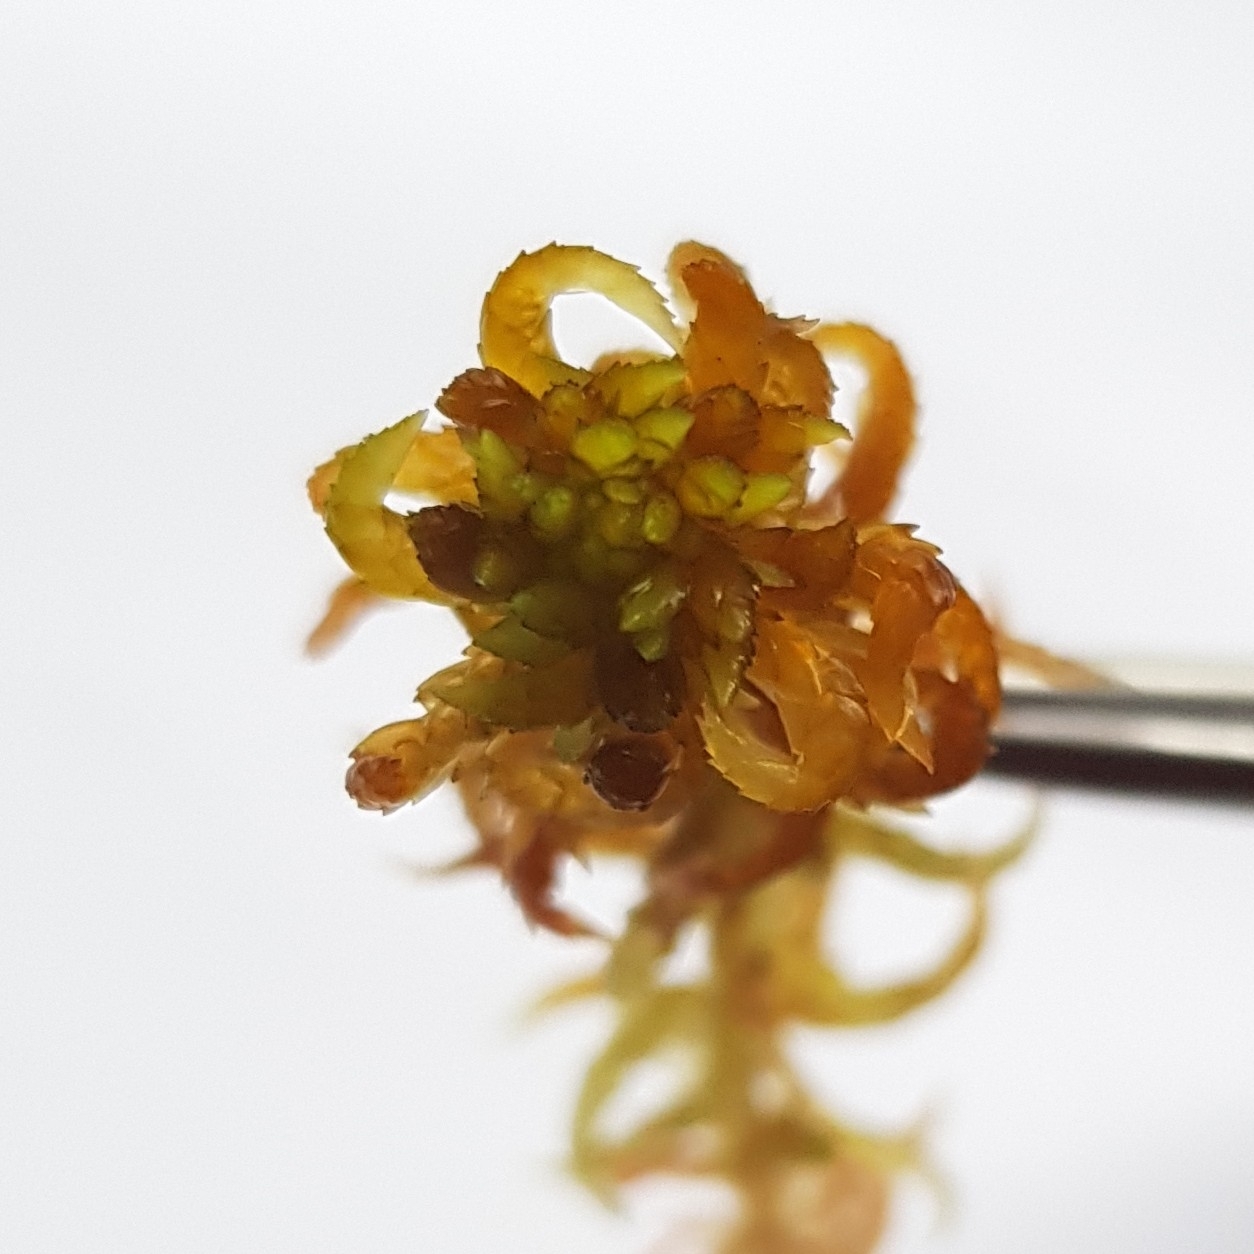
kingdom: Plantae
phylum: Bryophyta
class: Sphagnopsida
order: Sphagnales
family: Sphagnaceae
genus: Sphagnum
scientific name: Sphagnum denticulatum
